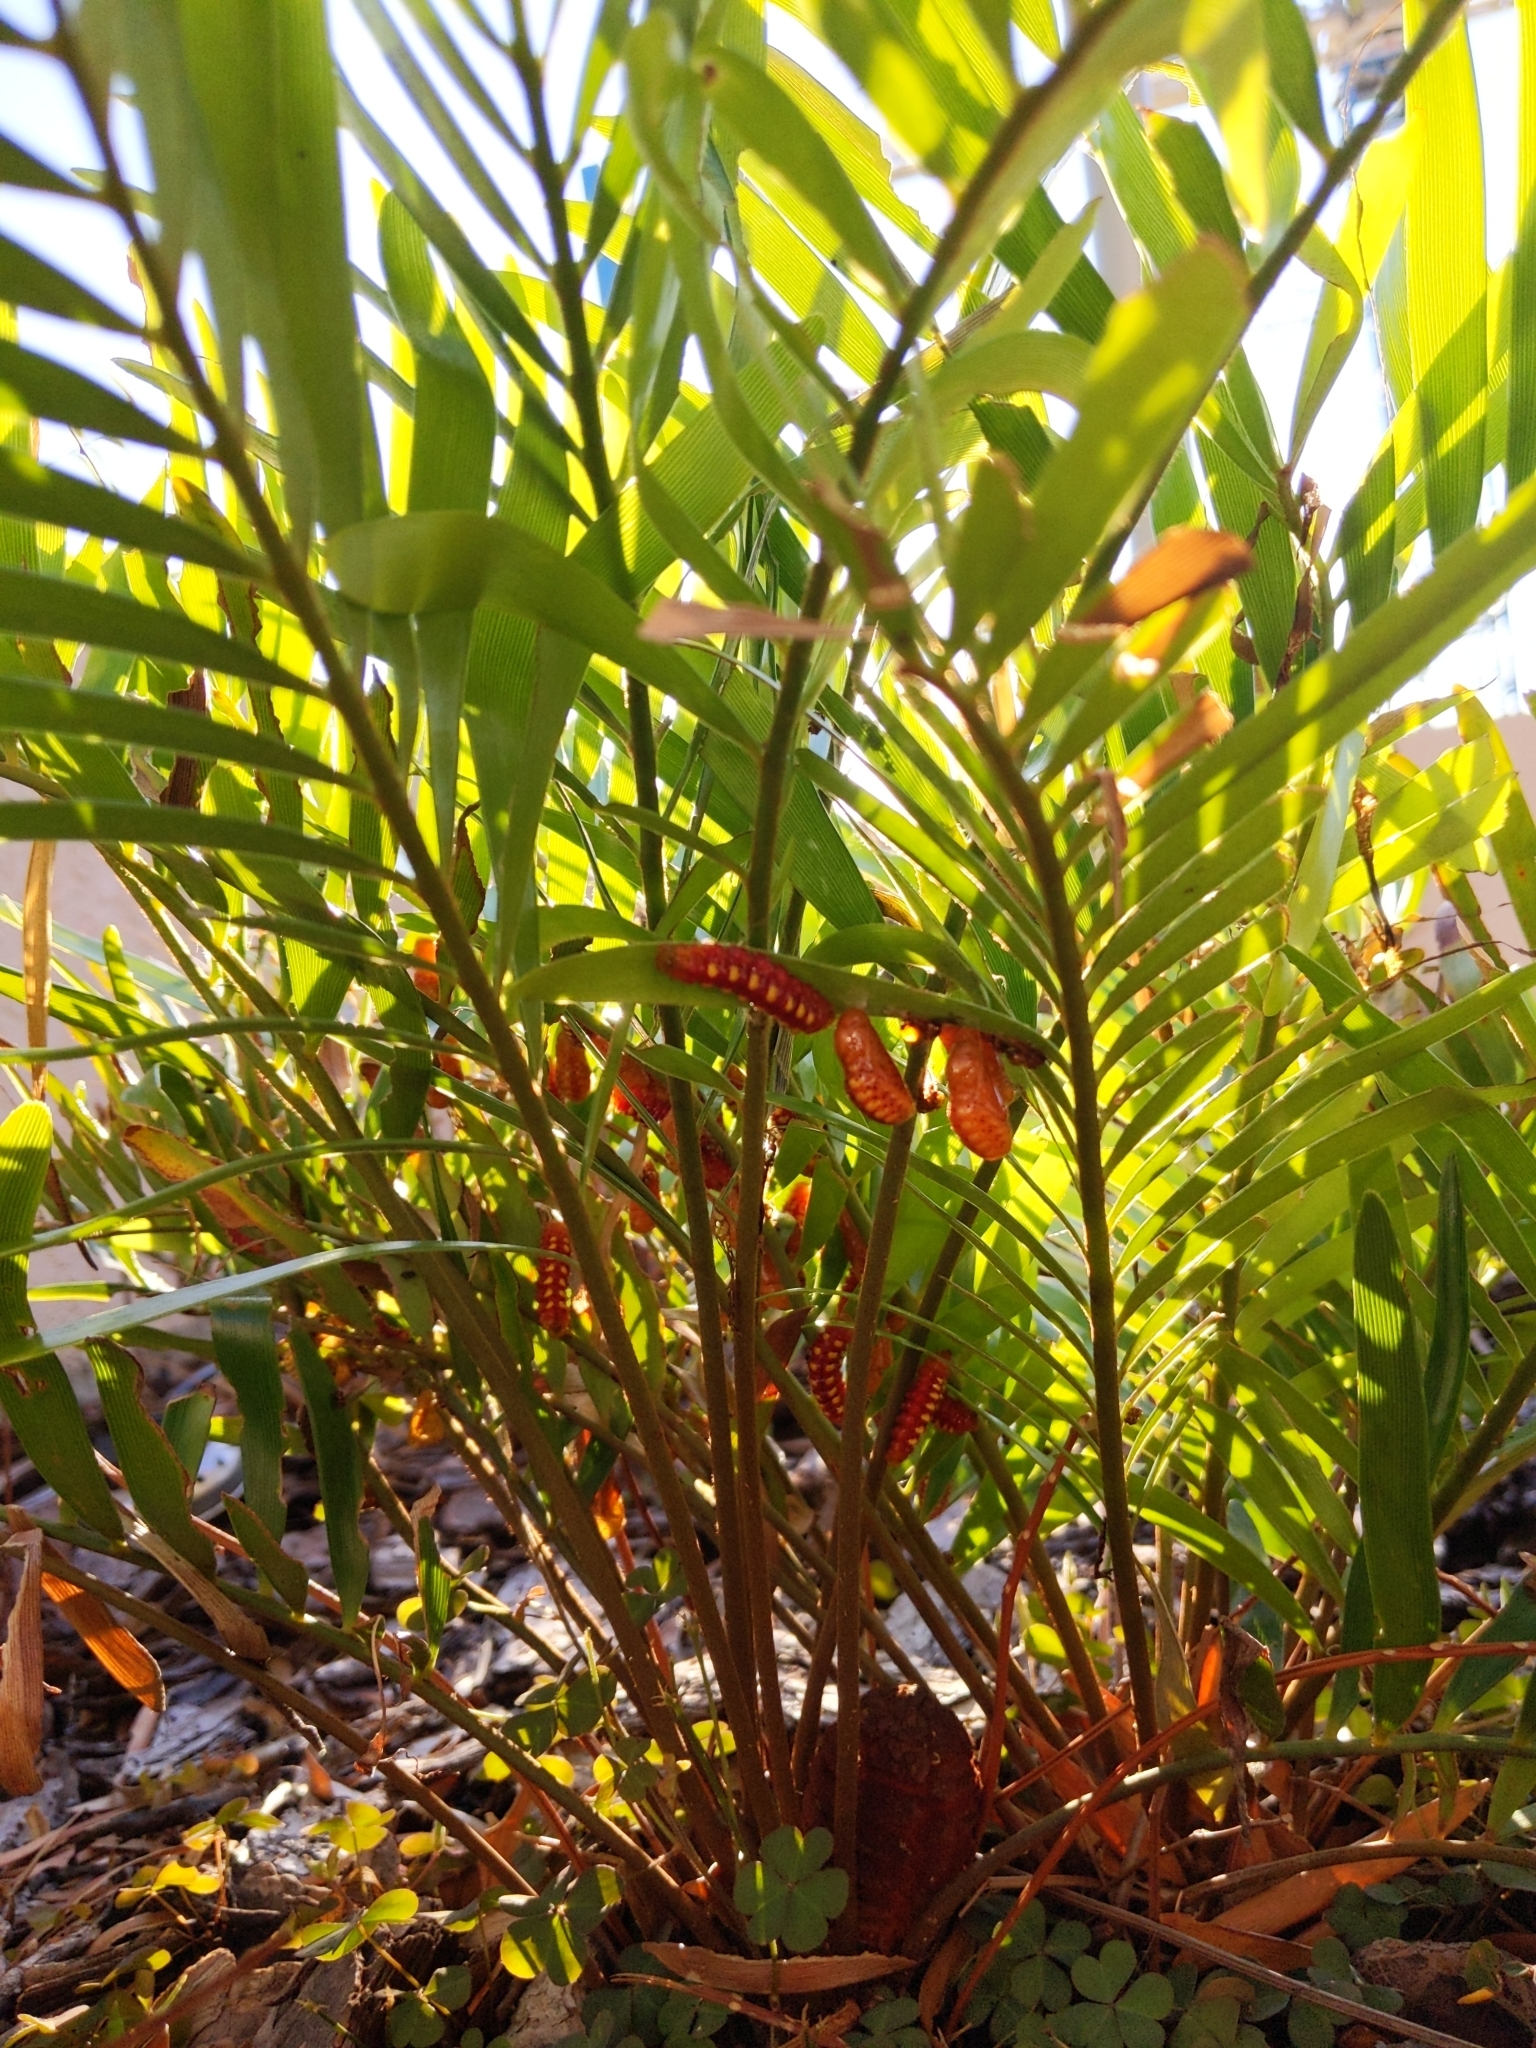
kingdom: Animalia
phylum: Arthropoda
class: Insecta
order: Lepidoptera
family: Lycaenidae
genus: Eumaeus
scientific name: Eumaeus atala
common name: Atala
